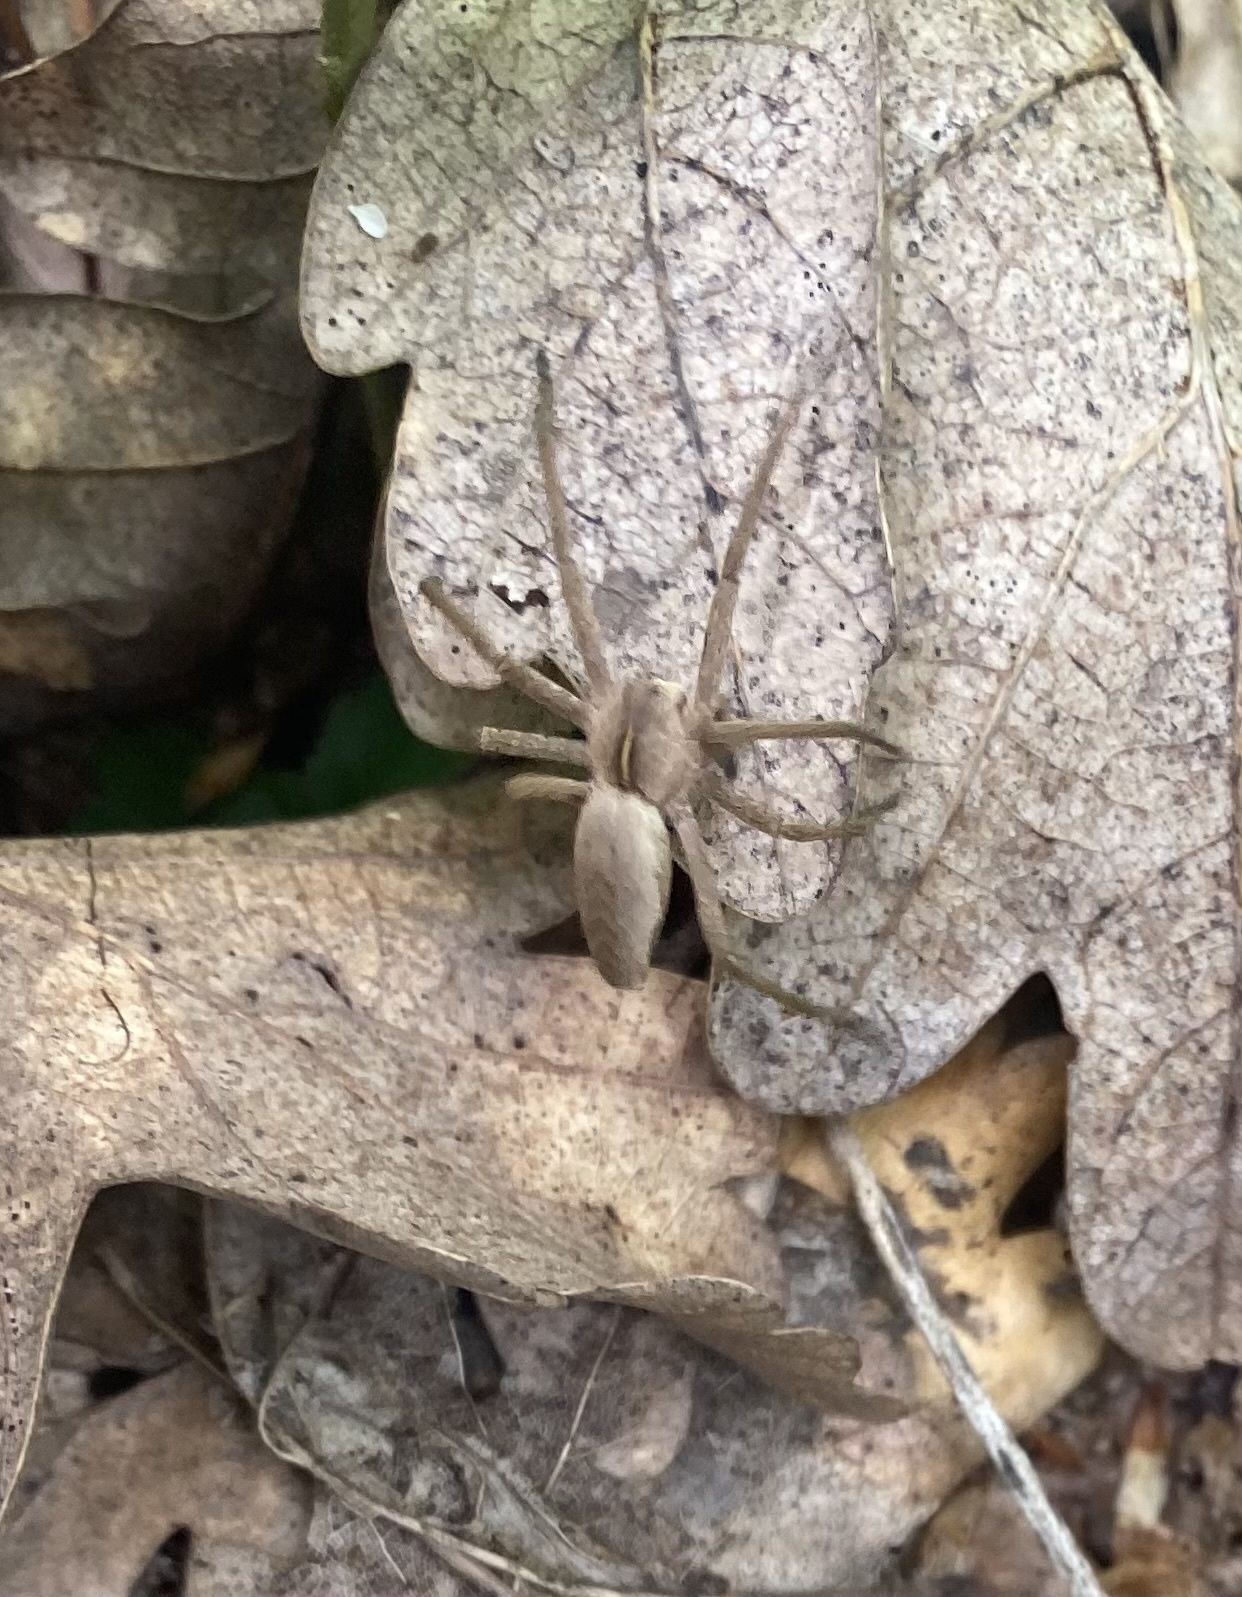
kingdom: Animalia
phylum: Arthropoda
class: Arachnida
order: Araneae
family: Pisauridae
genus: Pisaura
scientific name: Pisaura
